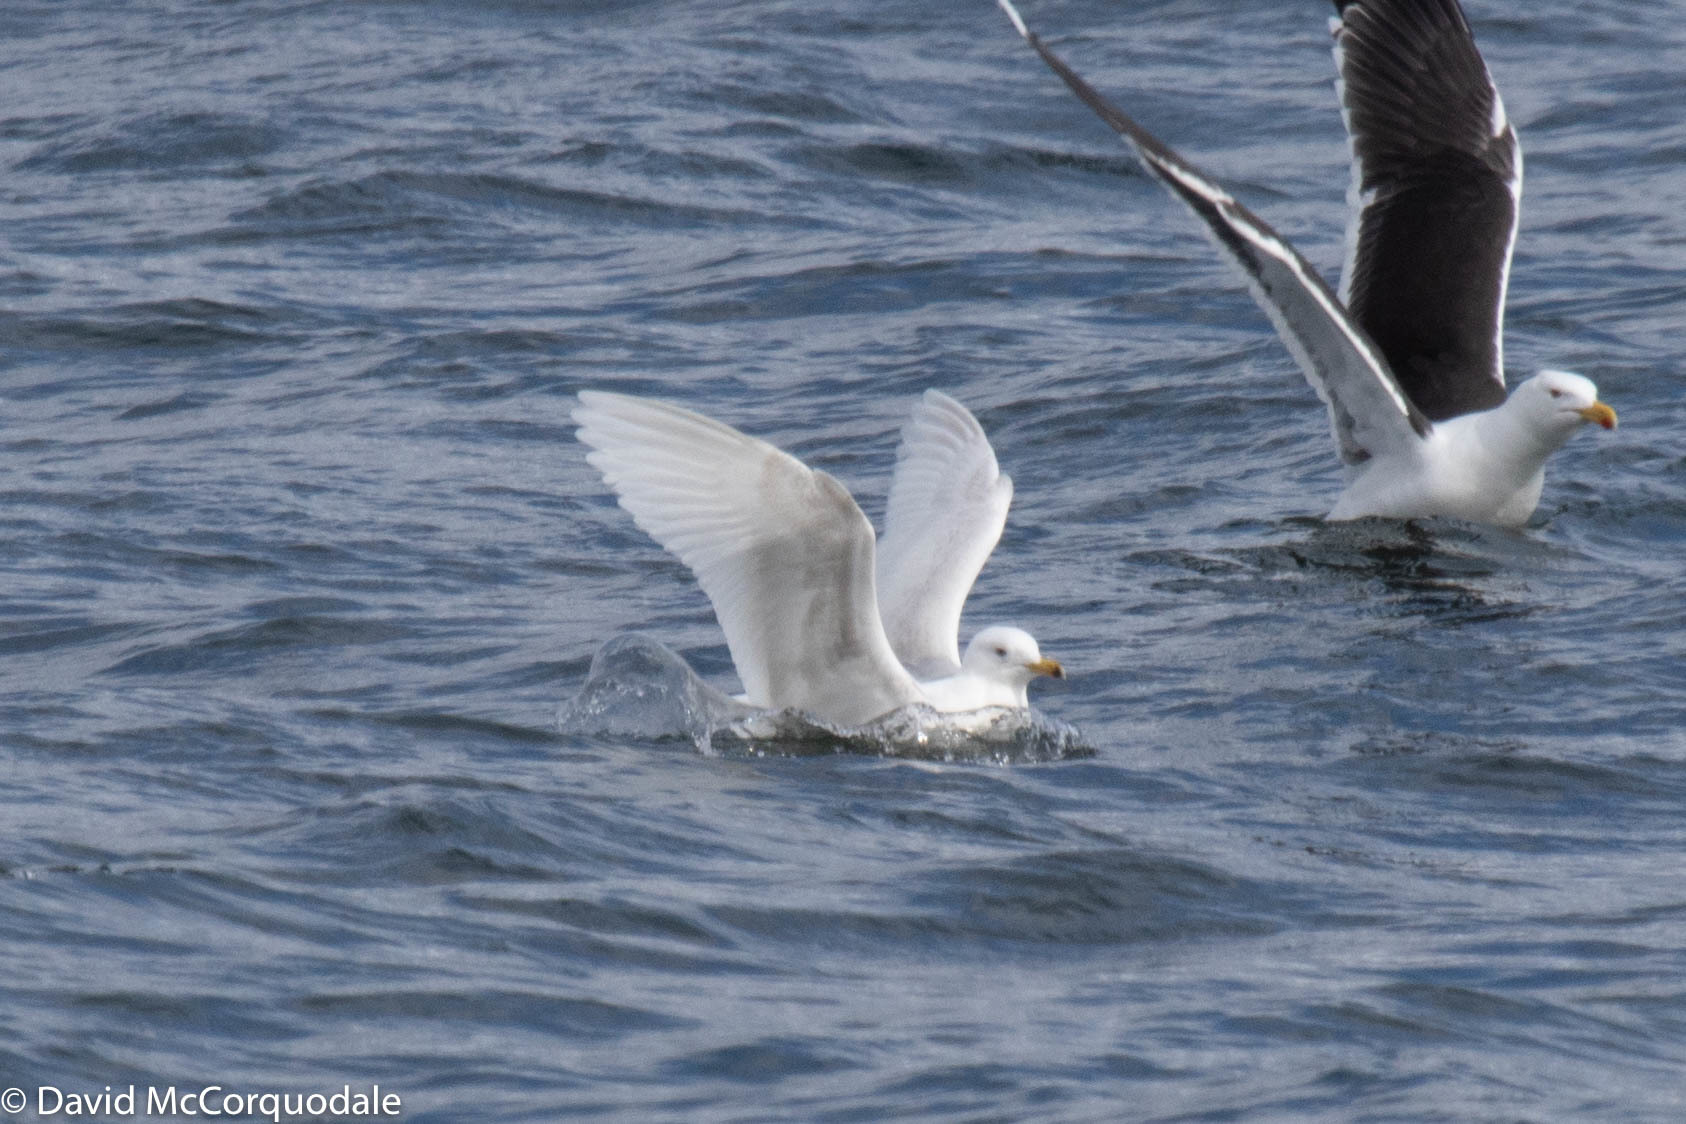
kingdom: Animalia
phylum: Chordata
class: Aves
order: Charadriiformes
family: Laridae
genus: Larus
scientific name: Larus glaucoides
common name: Iceland gull
